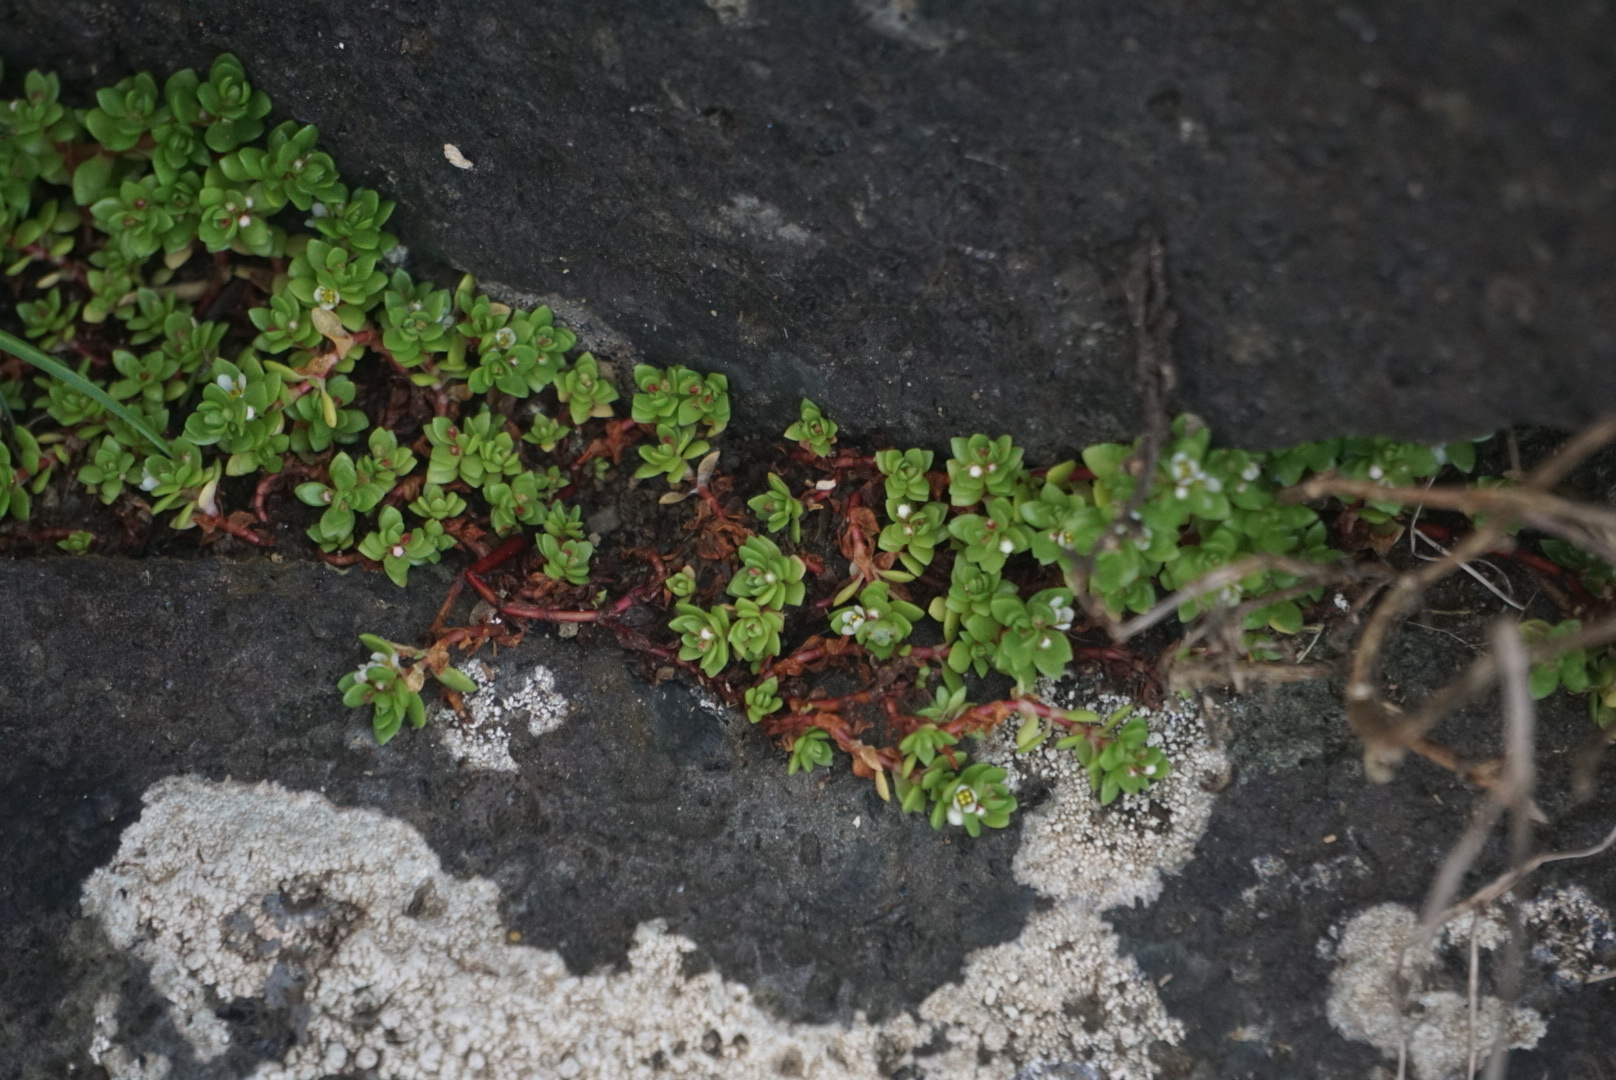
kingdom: Plantae
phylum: Tracheophyta
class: Magnoliopsida
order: Saxifragales
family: Crassulaceae
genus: Crassula
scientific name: Crassula moschata
